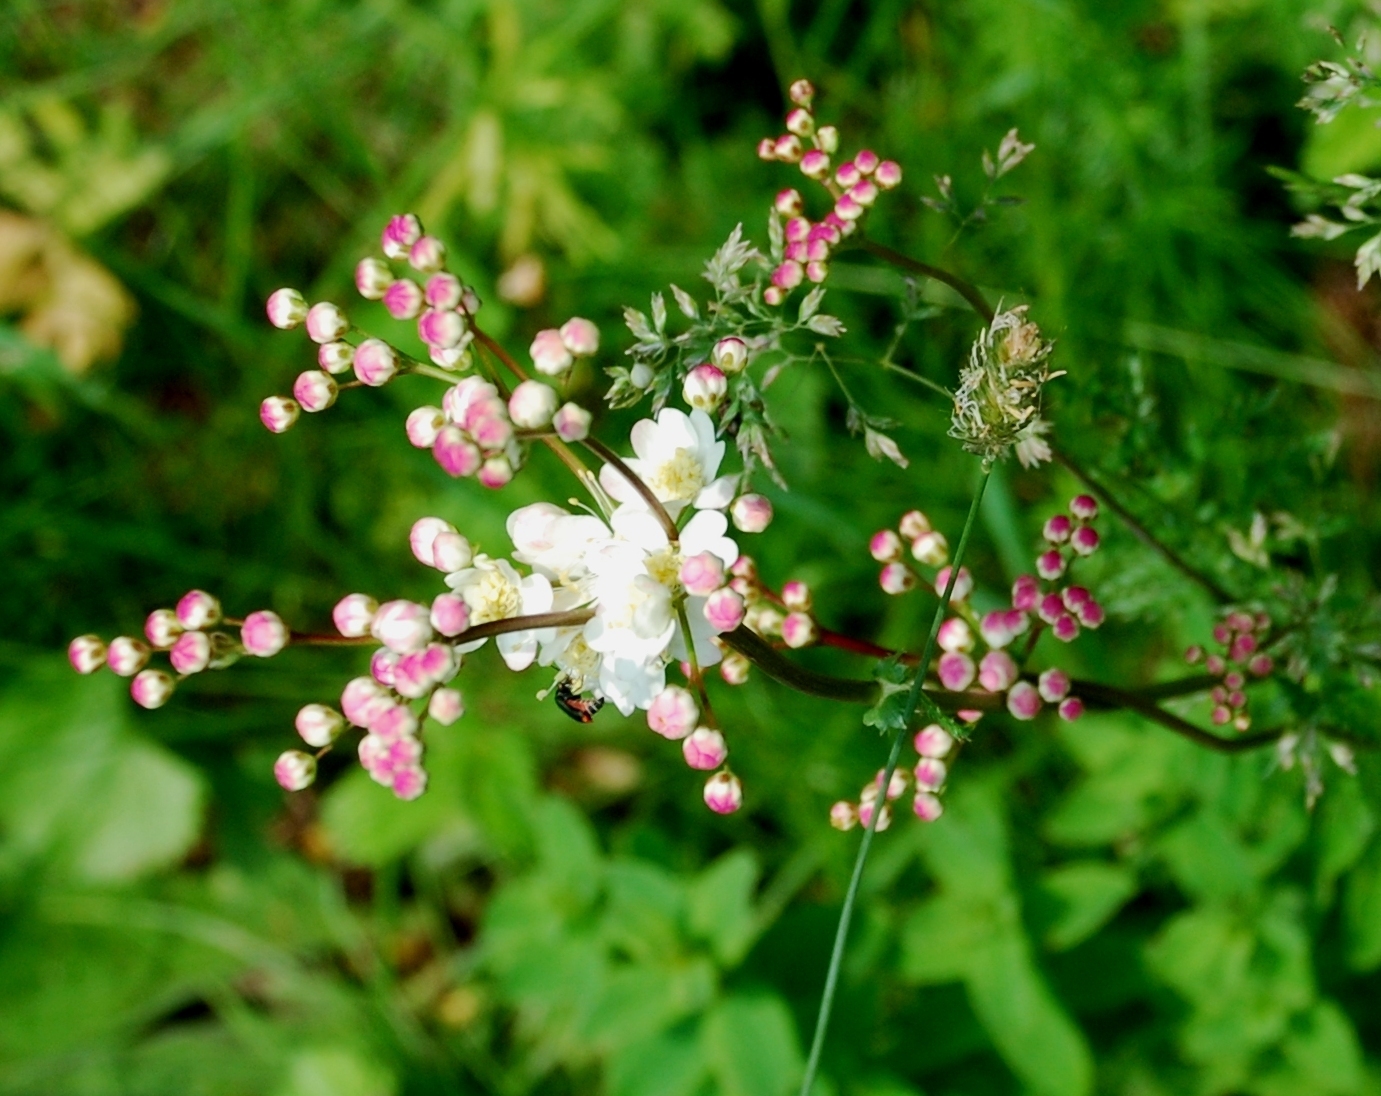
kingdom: Plantae
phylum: Tracheophyta
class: Magnoliopsida
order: Rosales
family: Rosaceae
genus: Filipendula
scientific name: Filipendula vulgaris
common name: Dropwort
